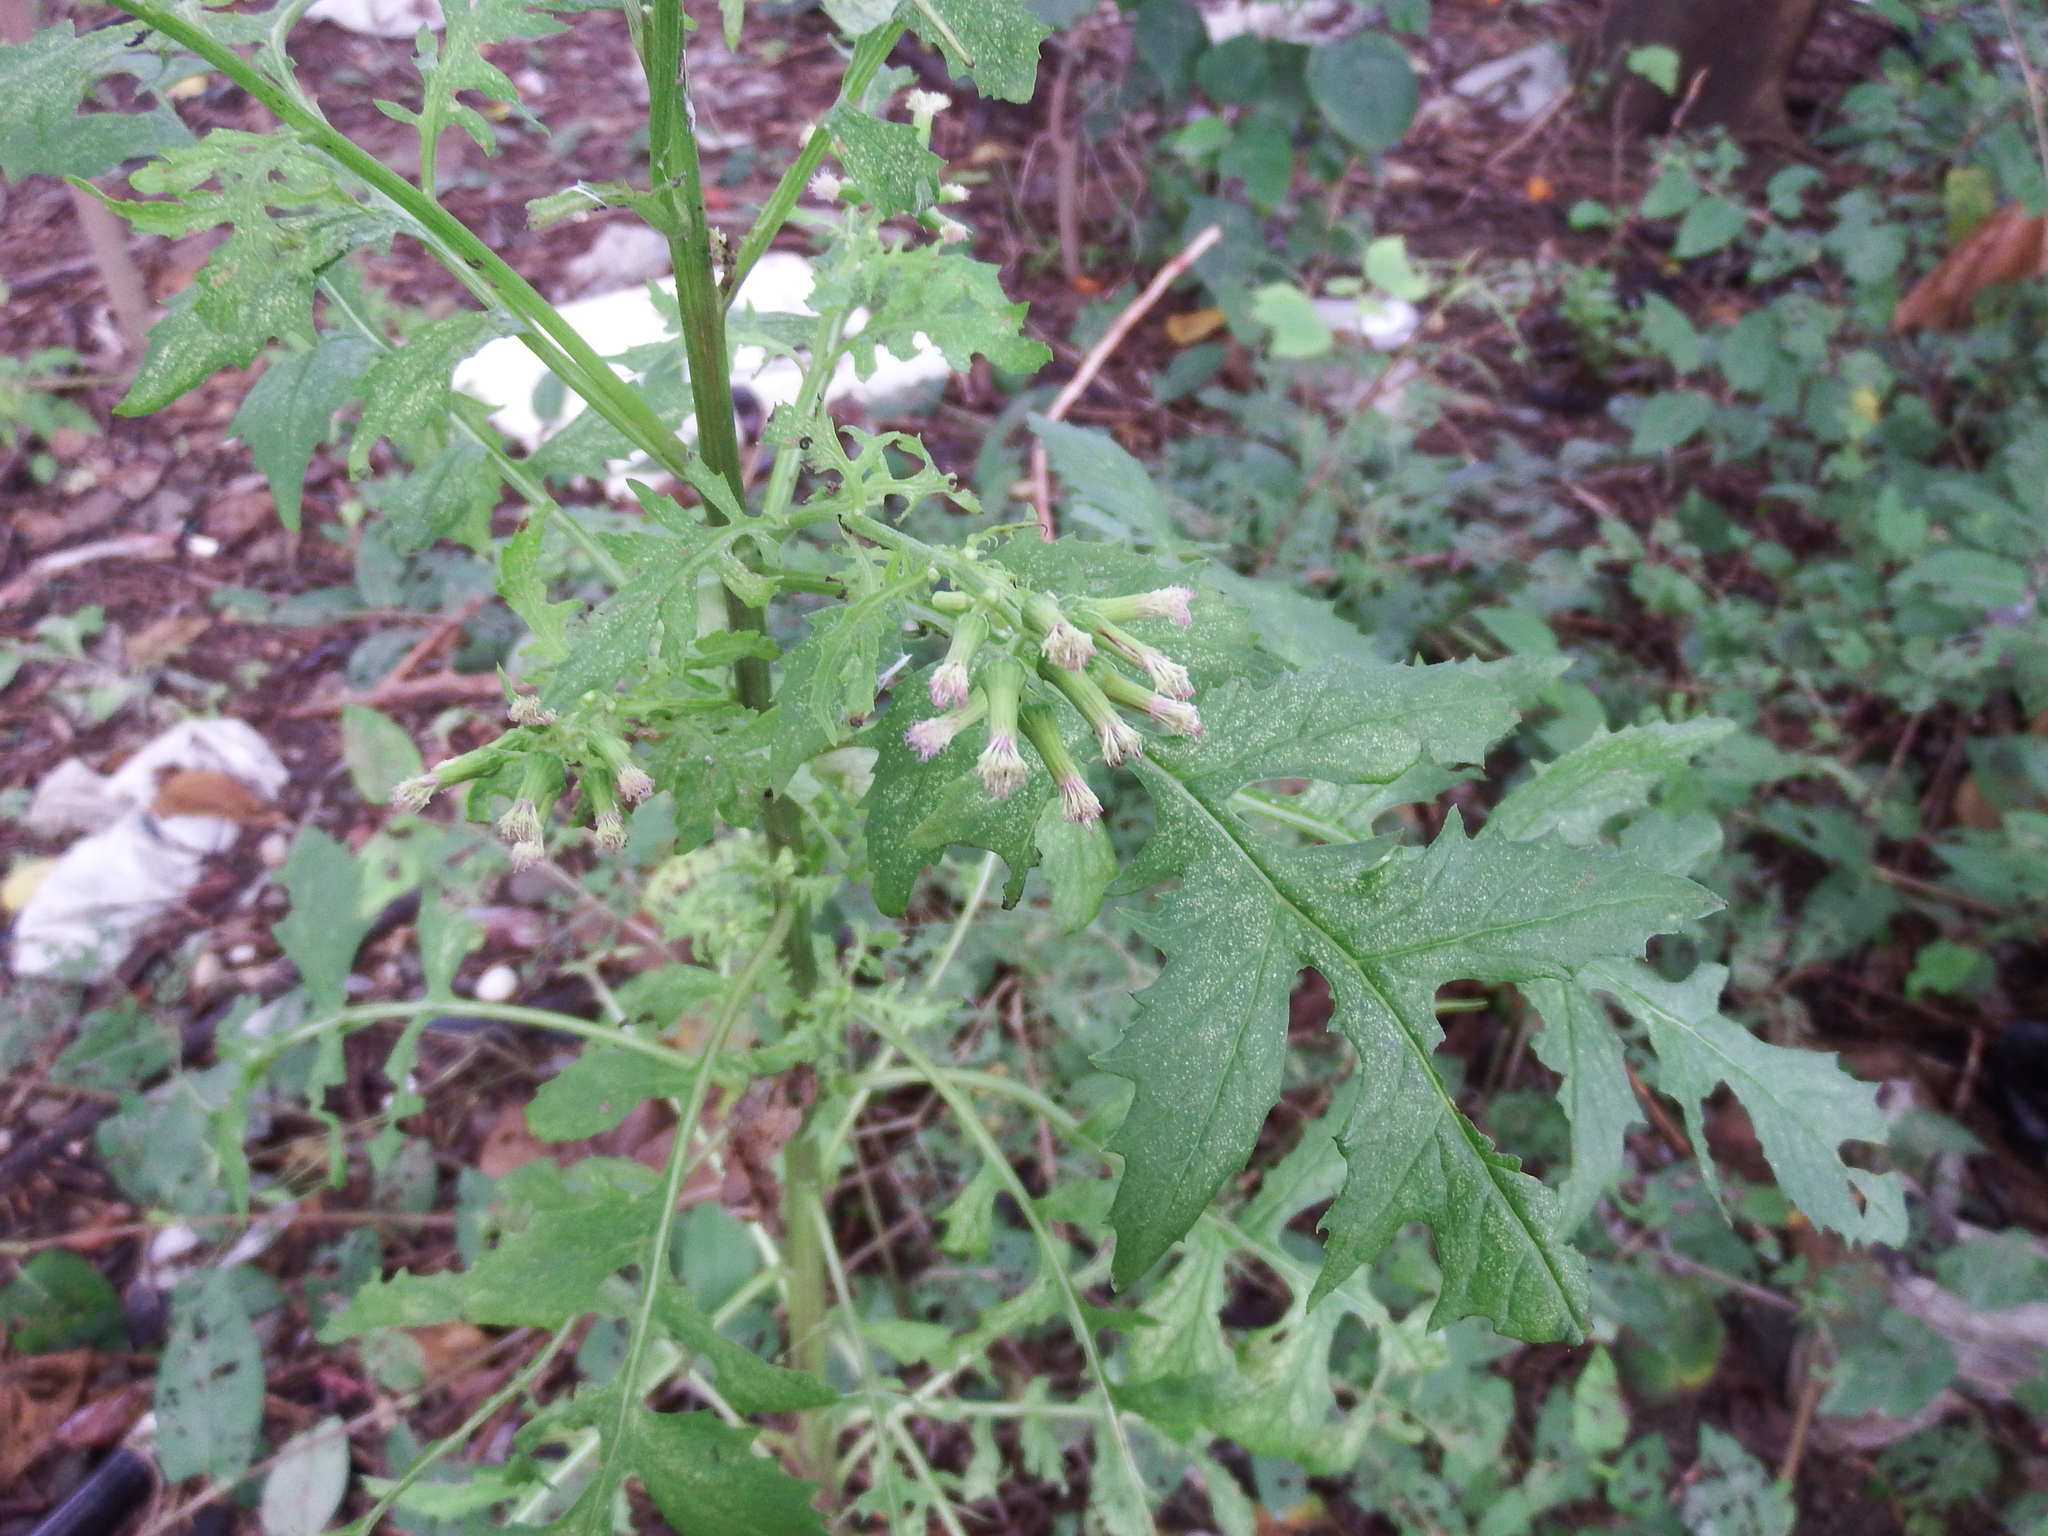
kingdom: Plantae
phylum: Tracheophyta
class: Magnoliopsida
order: Asterales
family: Asteraceae
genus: Erechtites
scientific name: Erechtites valerianifolius
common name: Tropical burnweed
